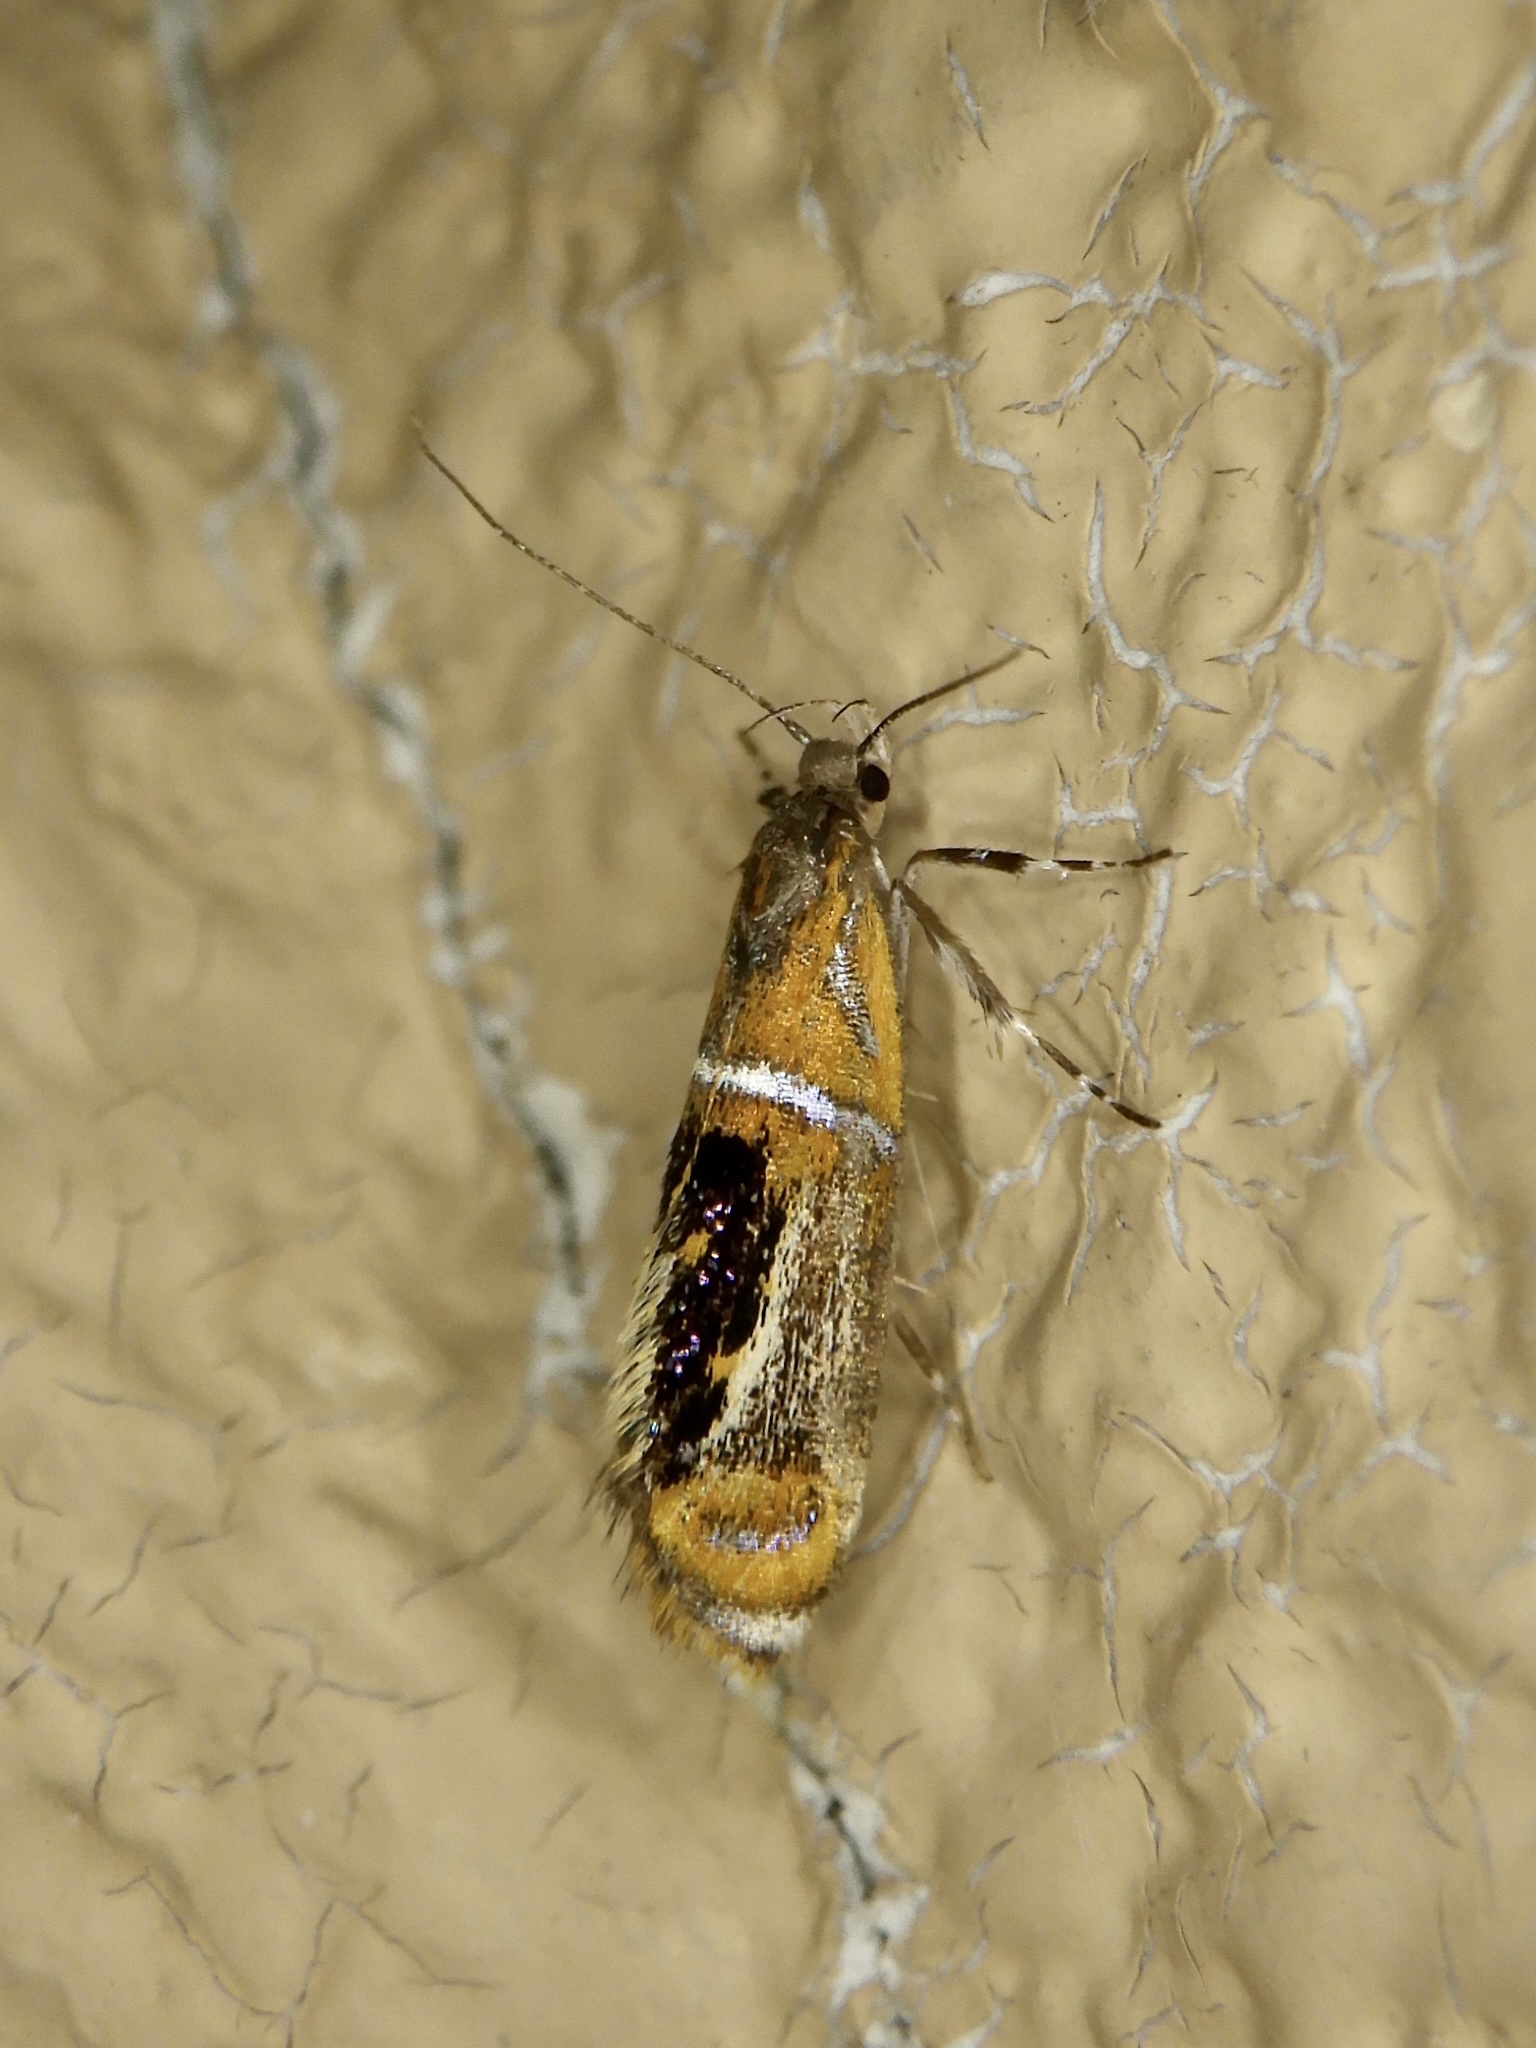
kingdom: Animalia
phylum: Arthropoda
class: Insecta
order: Lepidoptera
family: Oecophoridae
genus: Schiffermuelleria
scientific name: Schiffermuelleria
